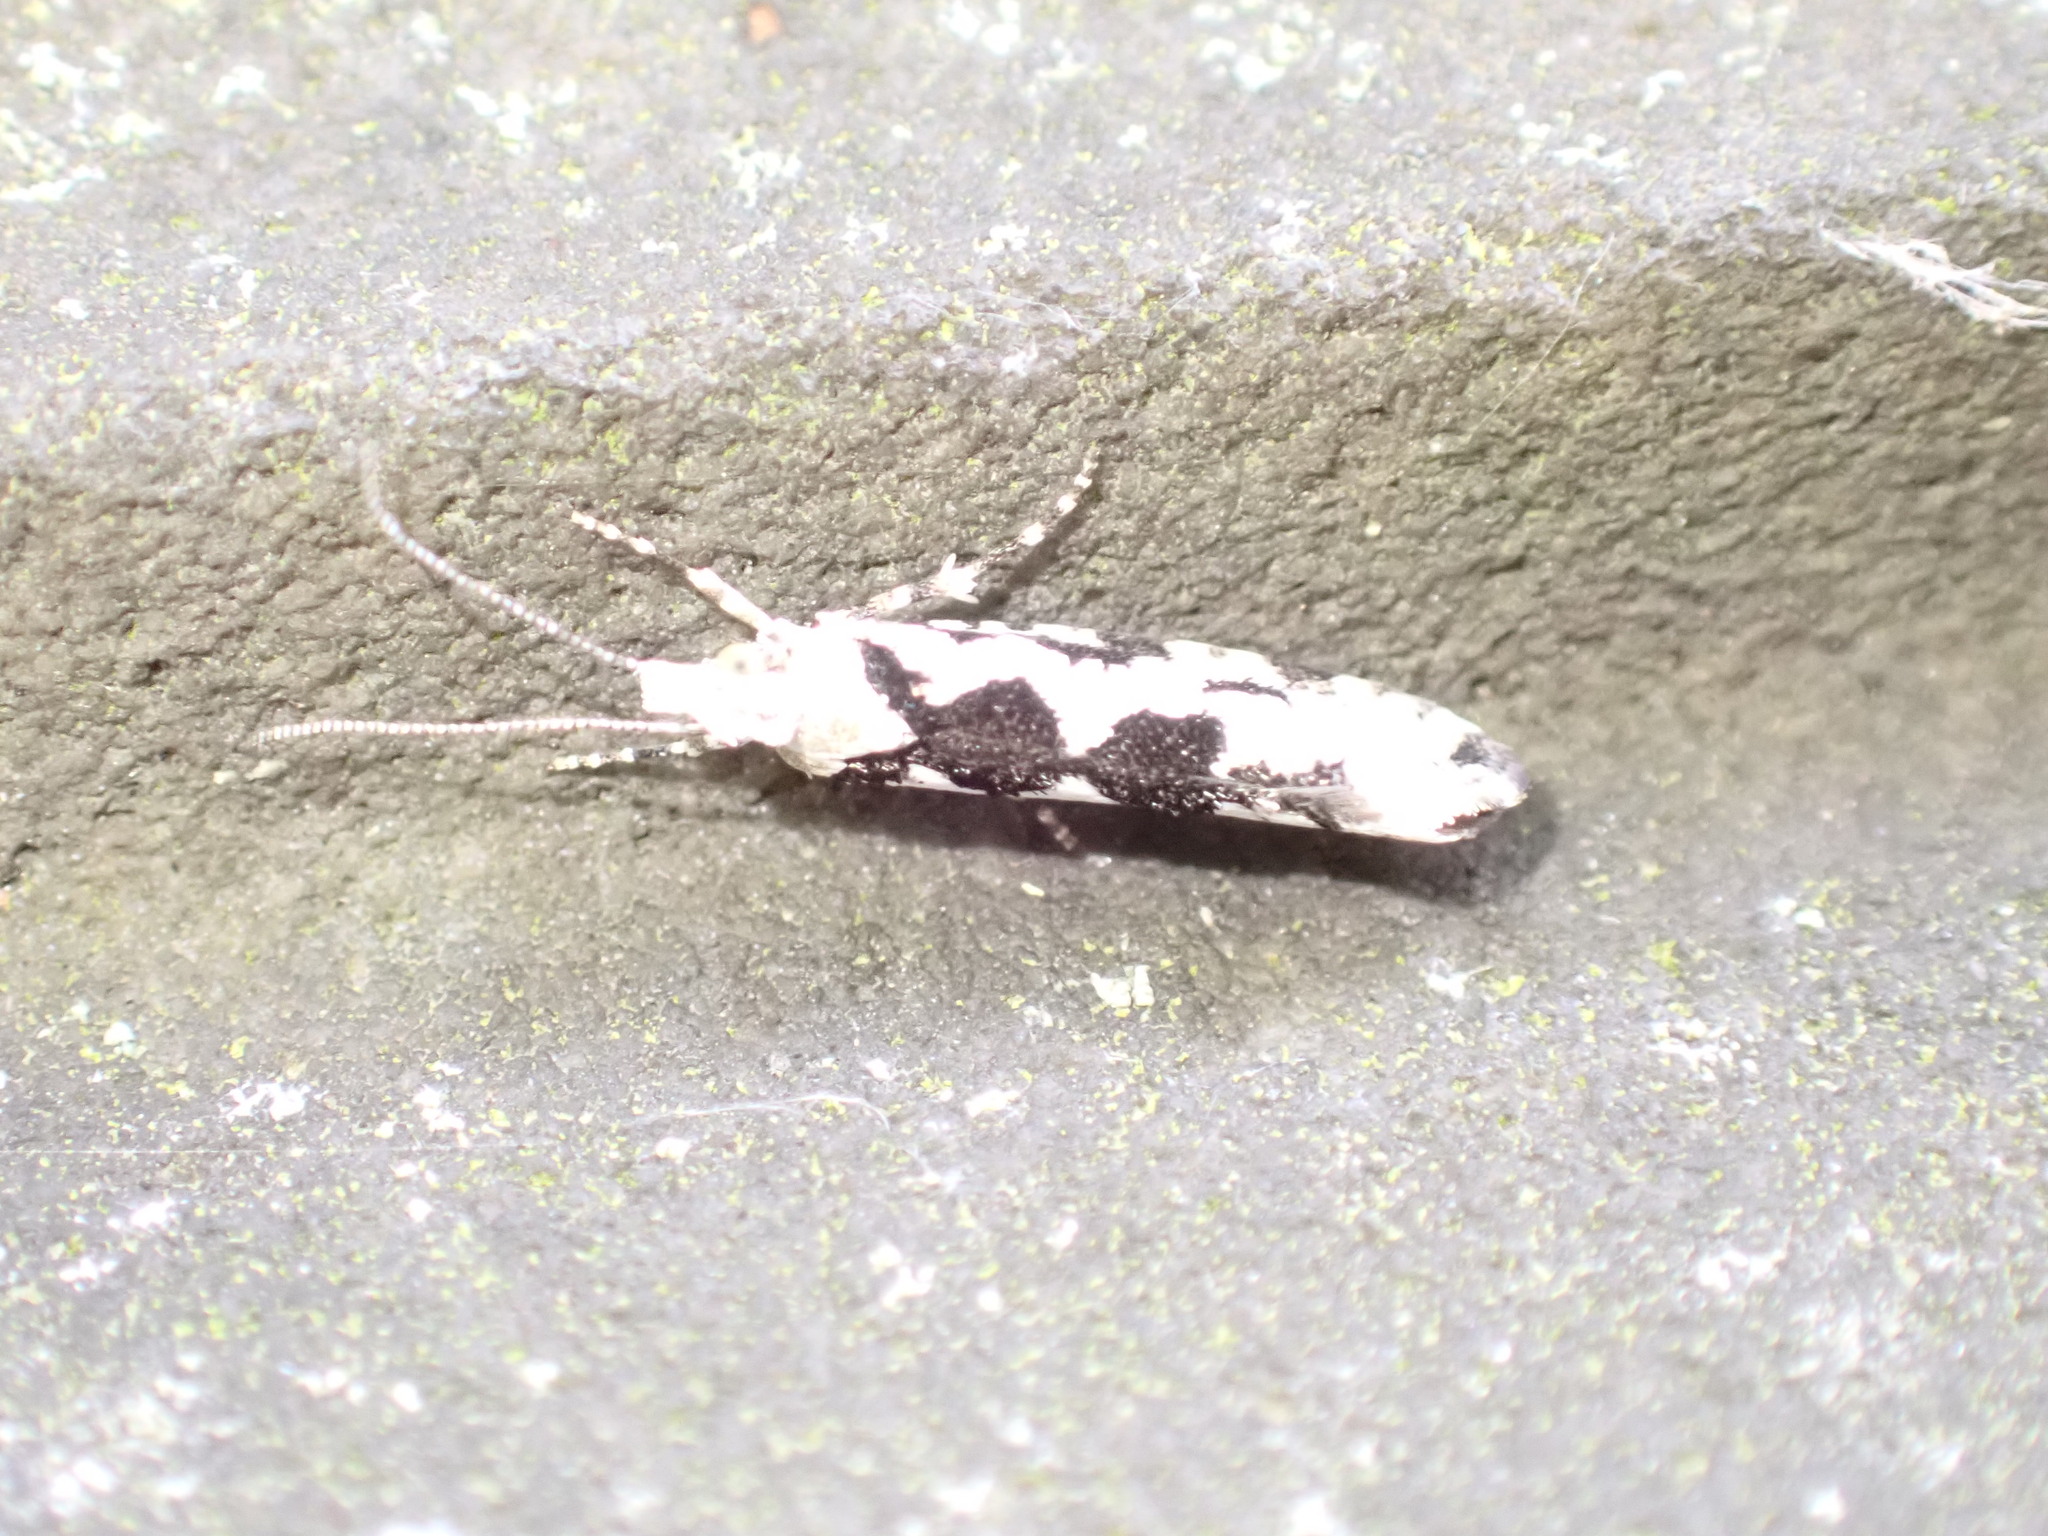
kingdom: Animalia
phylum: Arthropoda
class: Insecta
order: Lepidoptera
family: Plutellidae
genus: Ypsolophus
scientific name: Ypsolophus sequella
